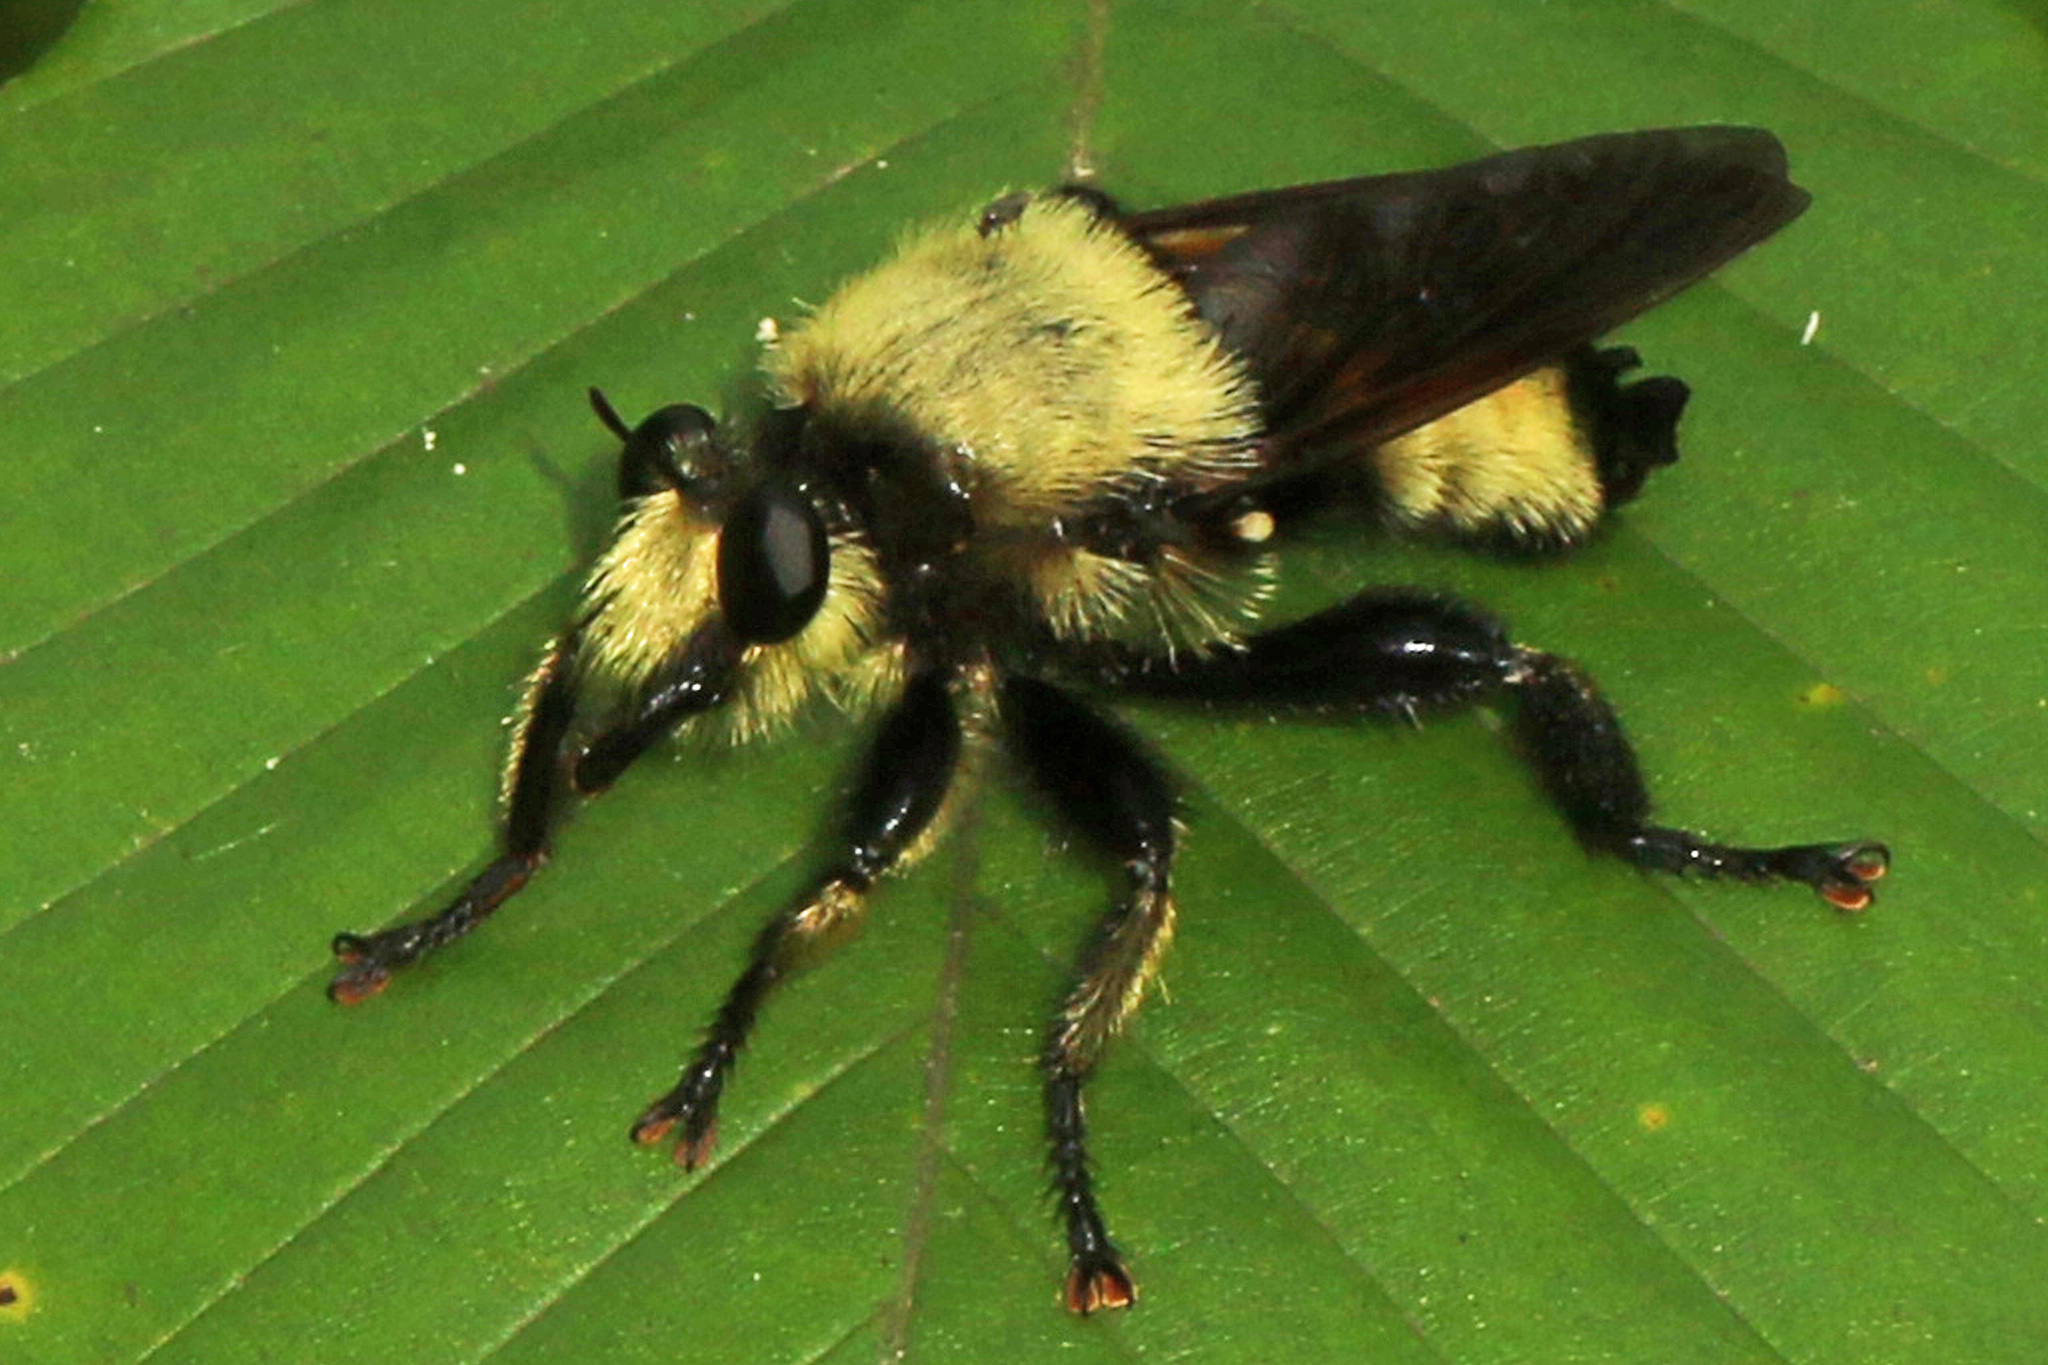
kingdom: Animalia
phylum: Arthropoda
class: Insecta
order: Diptera
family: Asilidae
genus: Laphria
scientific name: Laphria grossa
